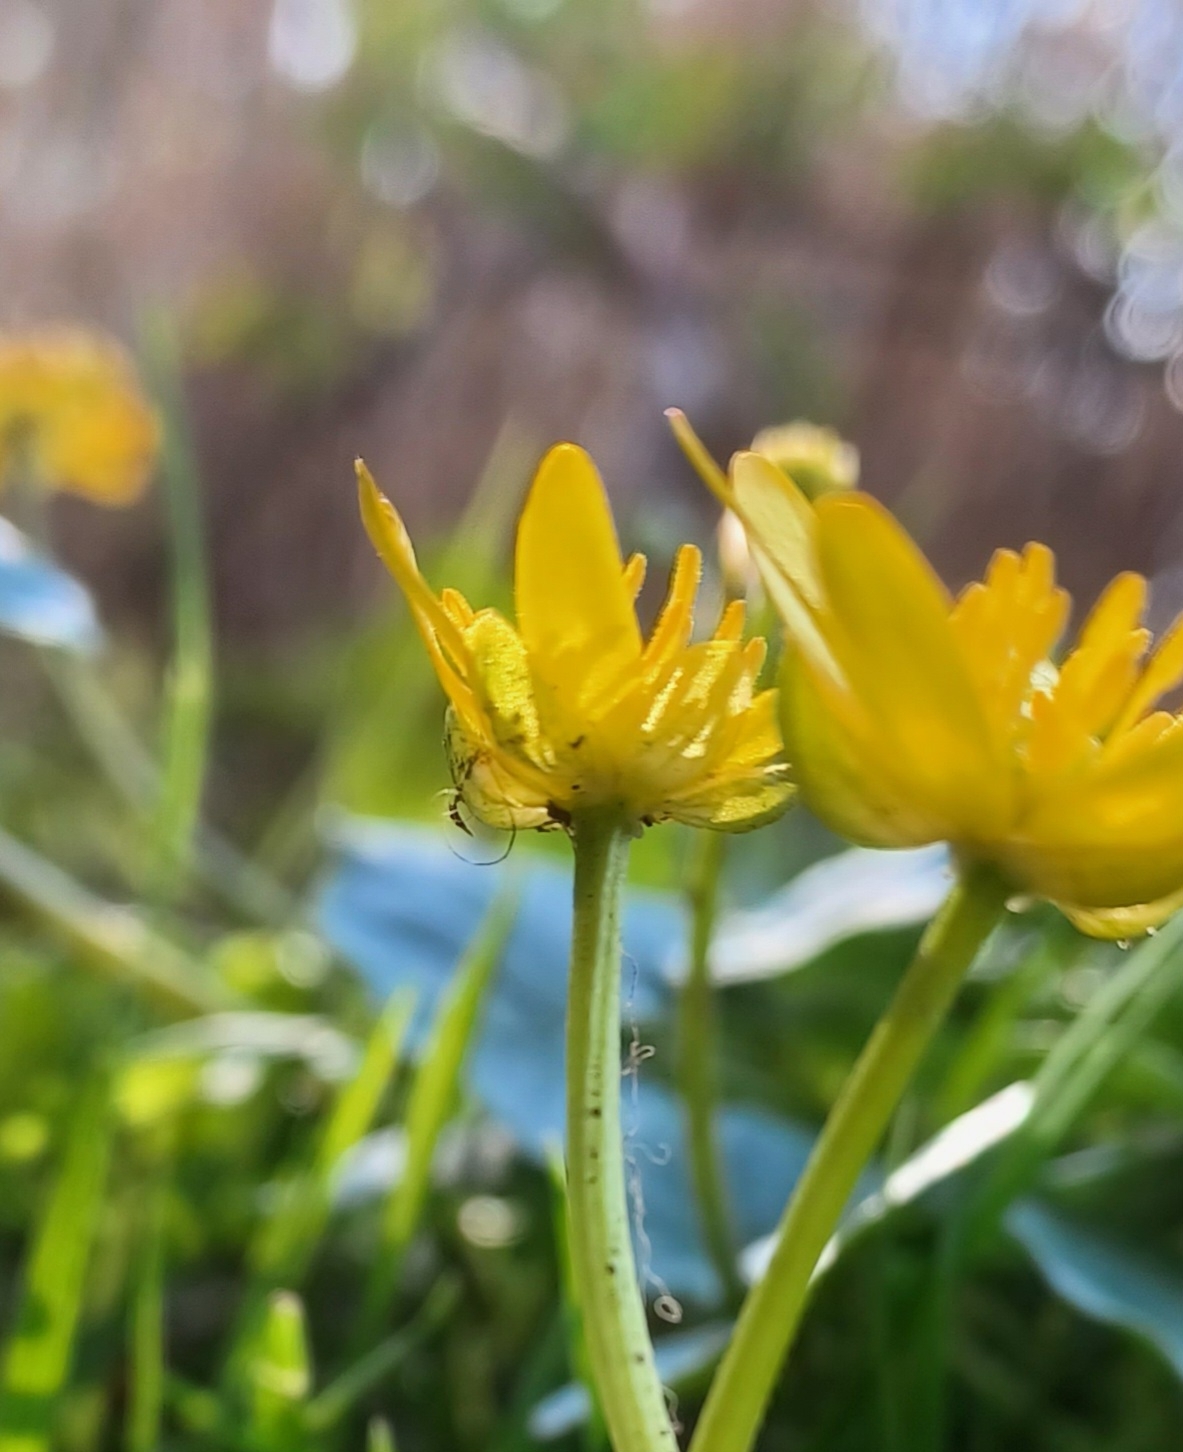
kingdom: Plantae
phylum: Tracheophyta
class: Magnoliopsida
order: Ranunculales
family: Ranunculaceae
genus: Ficaria
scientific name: Ficaria verna
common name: Lesser celandine
